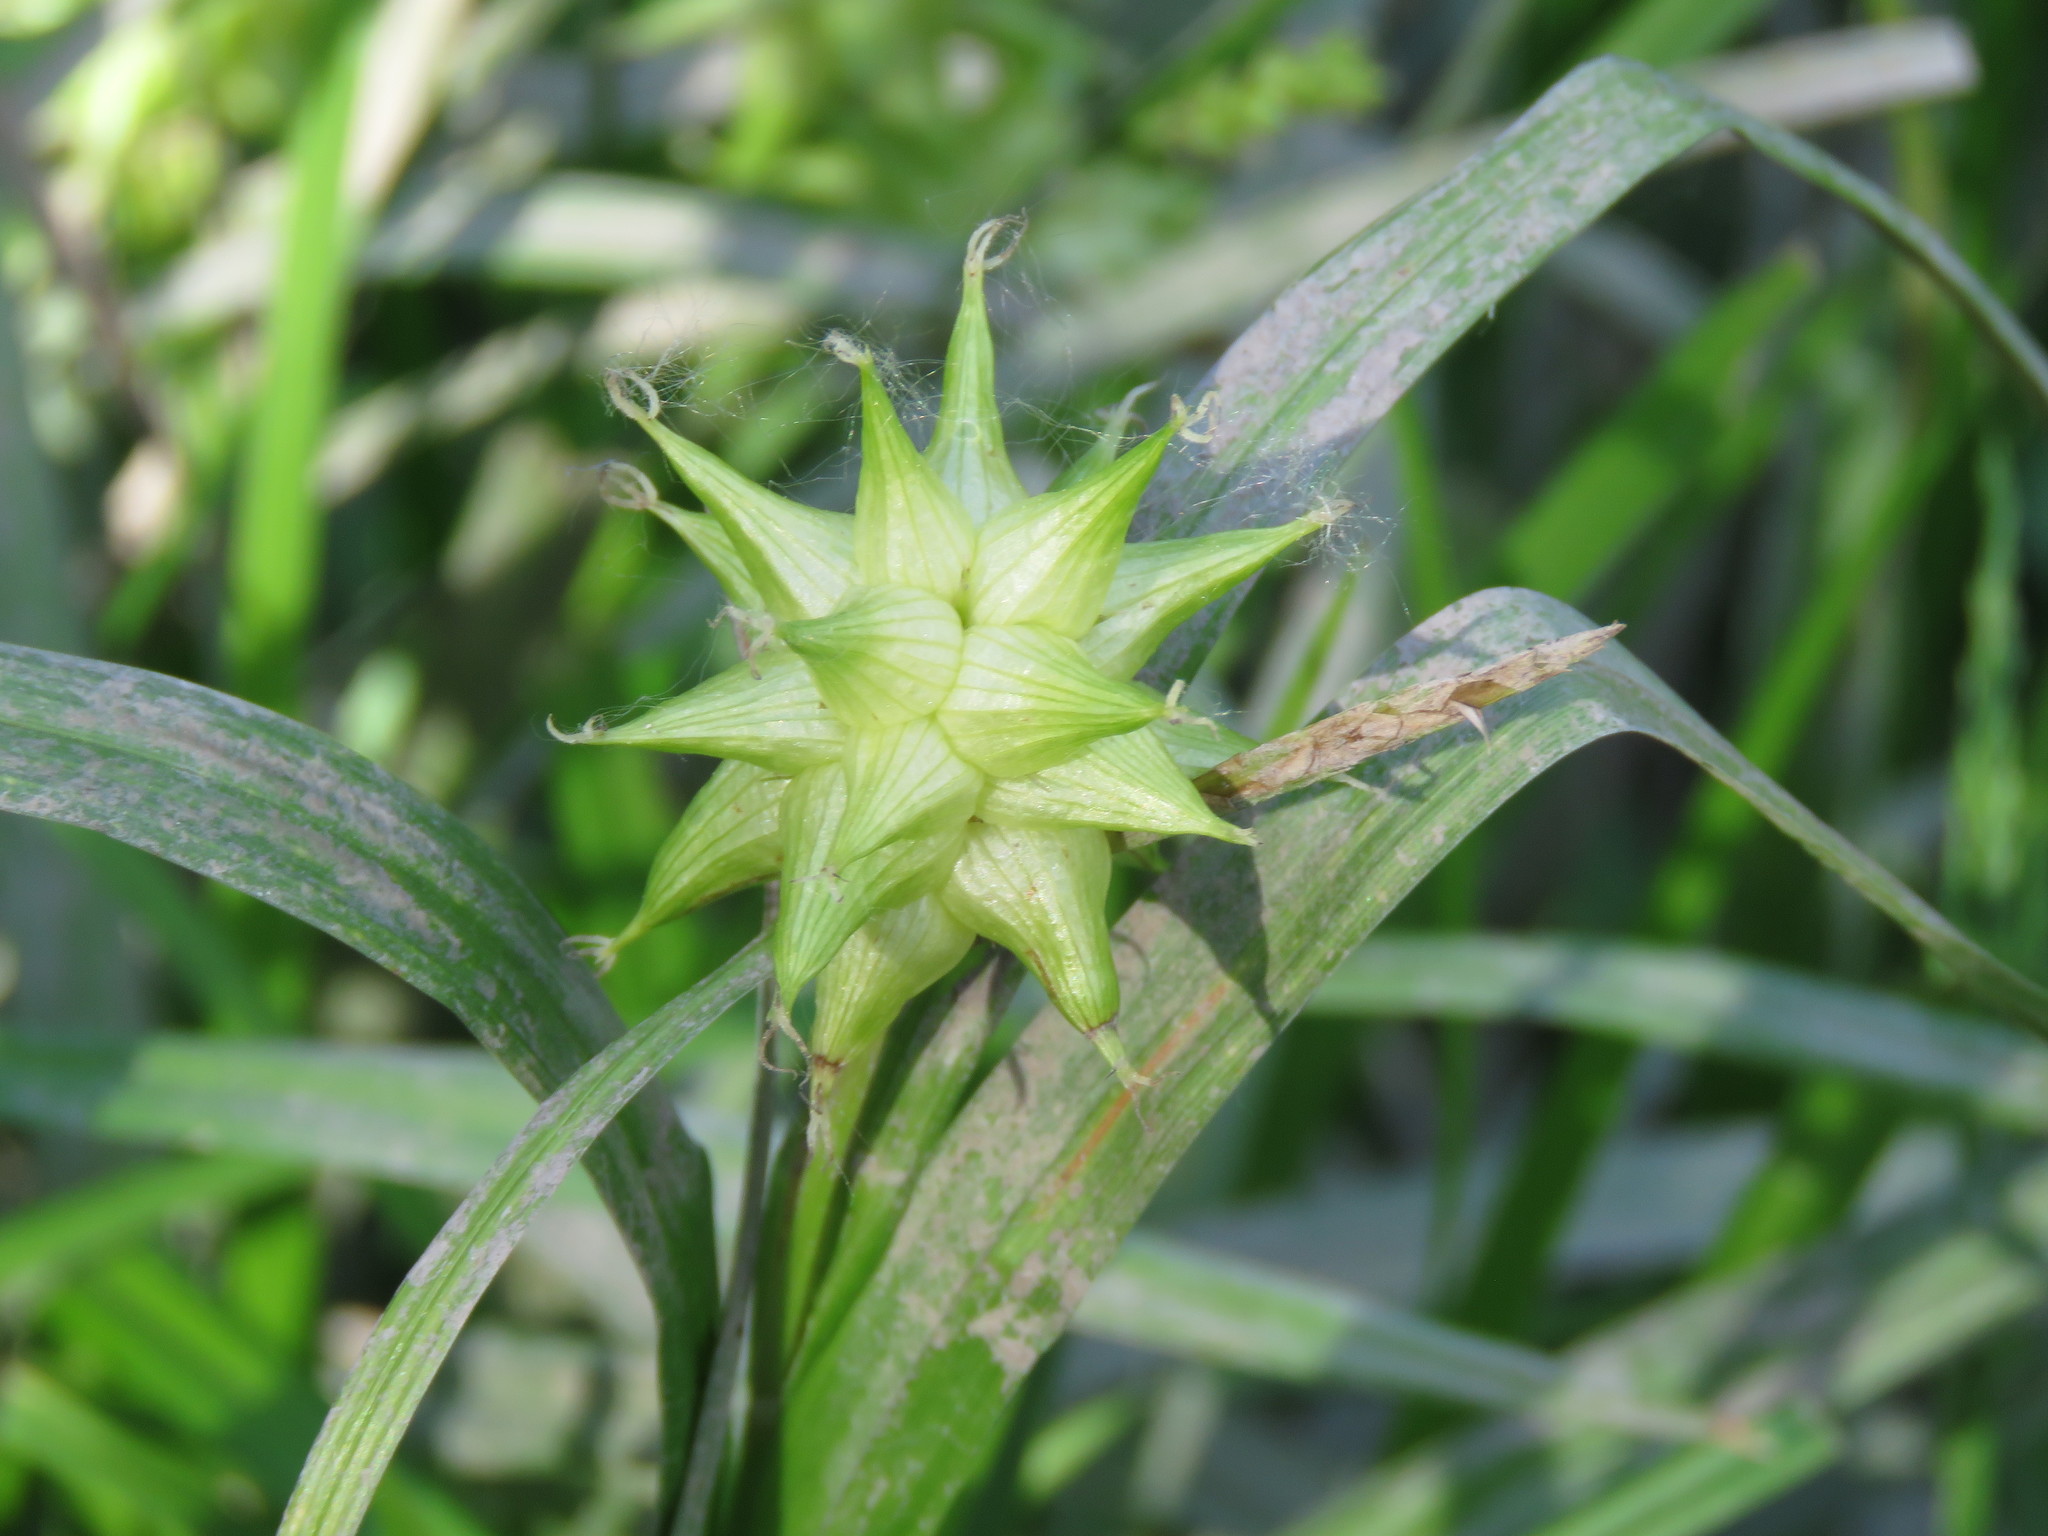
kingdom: Plantae
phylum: Tracheophyta
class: Liliopsida
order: Poales
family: Cyperaceae
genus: Carex
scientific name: Carex grayi
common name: Asa gray's sedge
